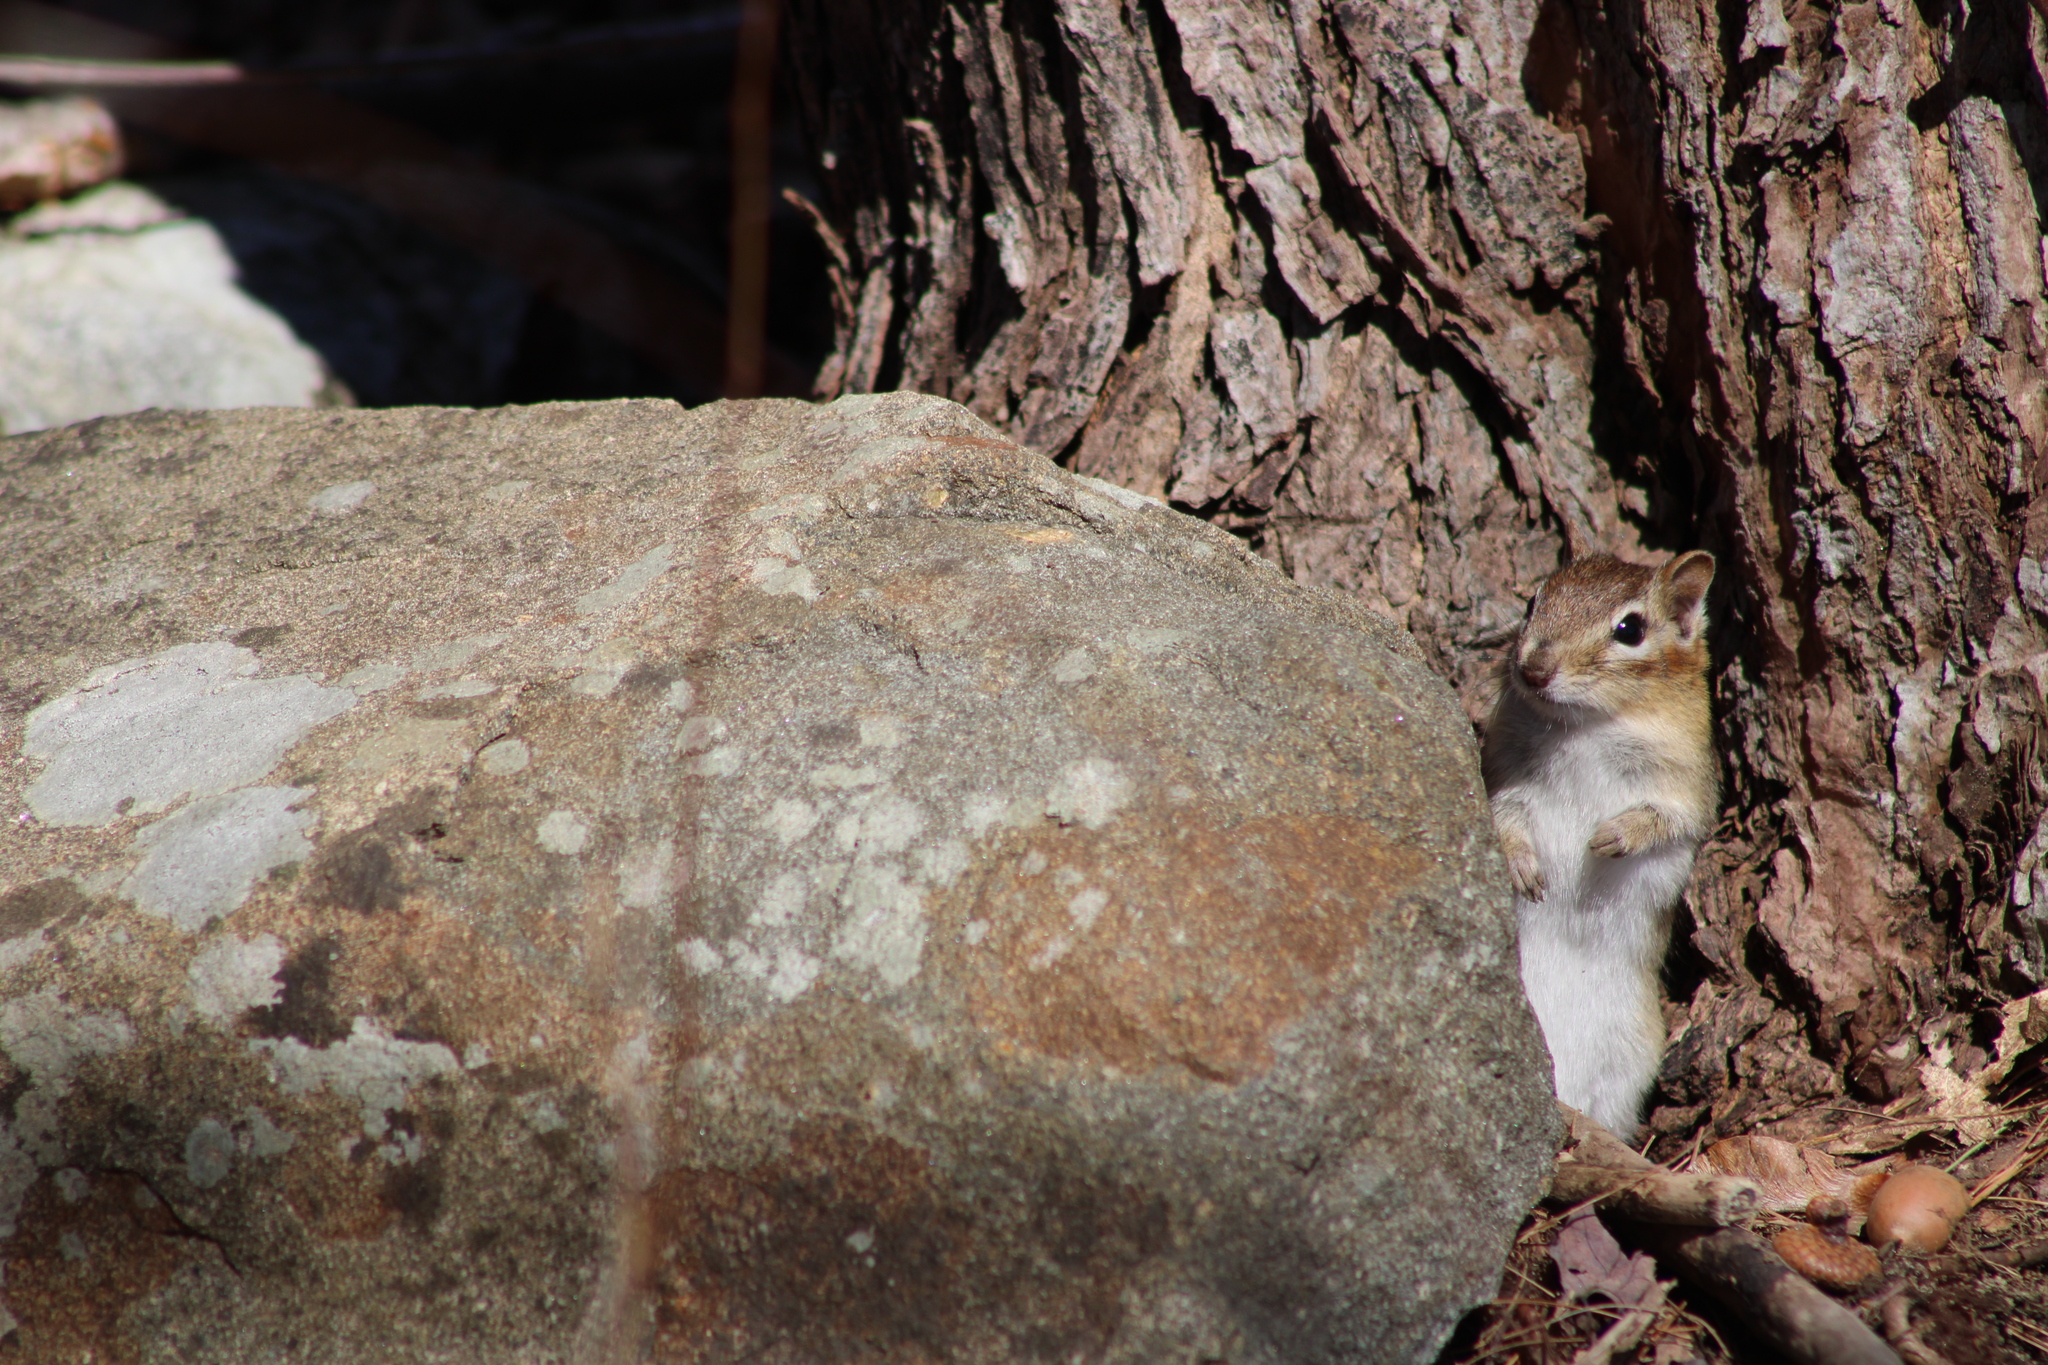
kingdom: Animalia
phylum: Chordata
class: Mammalia
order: Rodentia
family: Sciuridae
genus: Tamias
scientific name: Tamias striatus
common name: Eastern chipmunk
